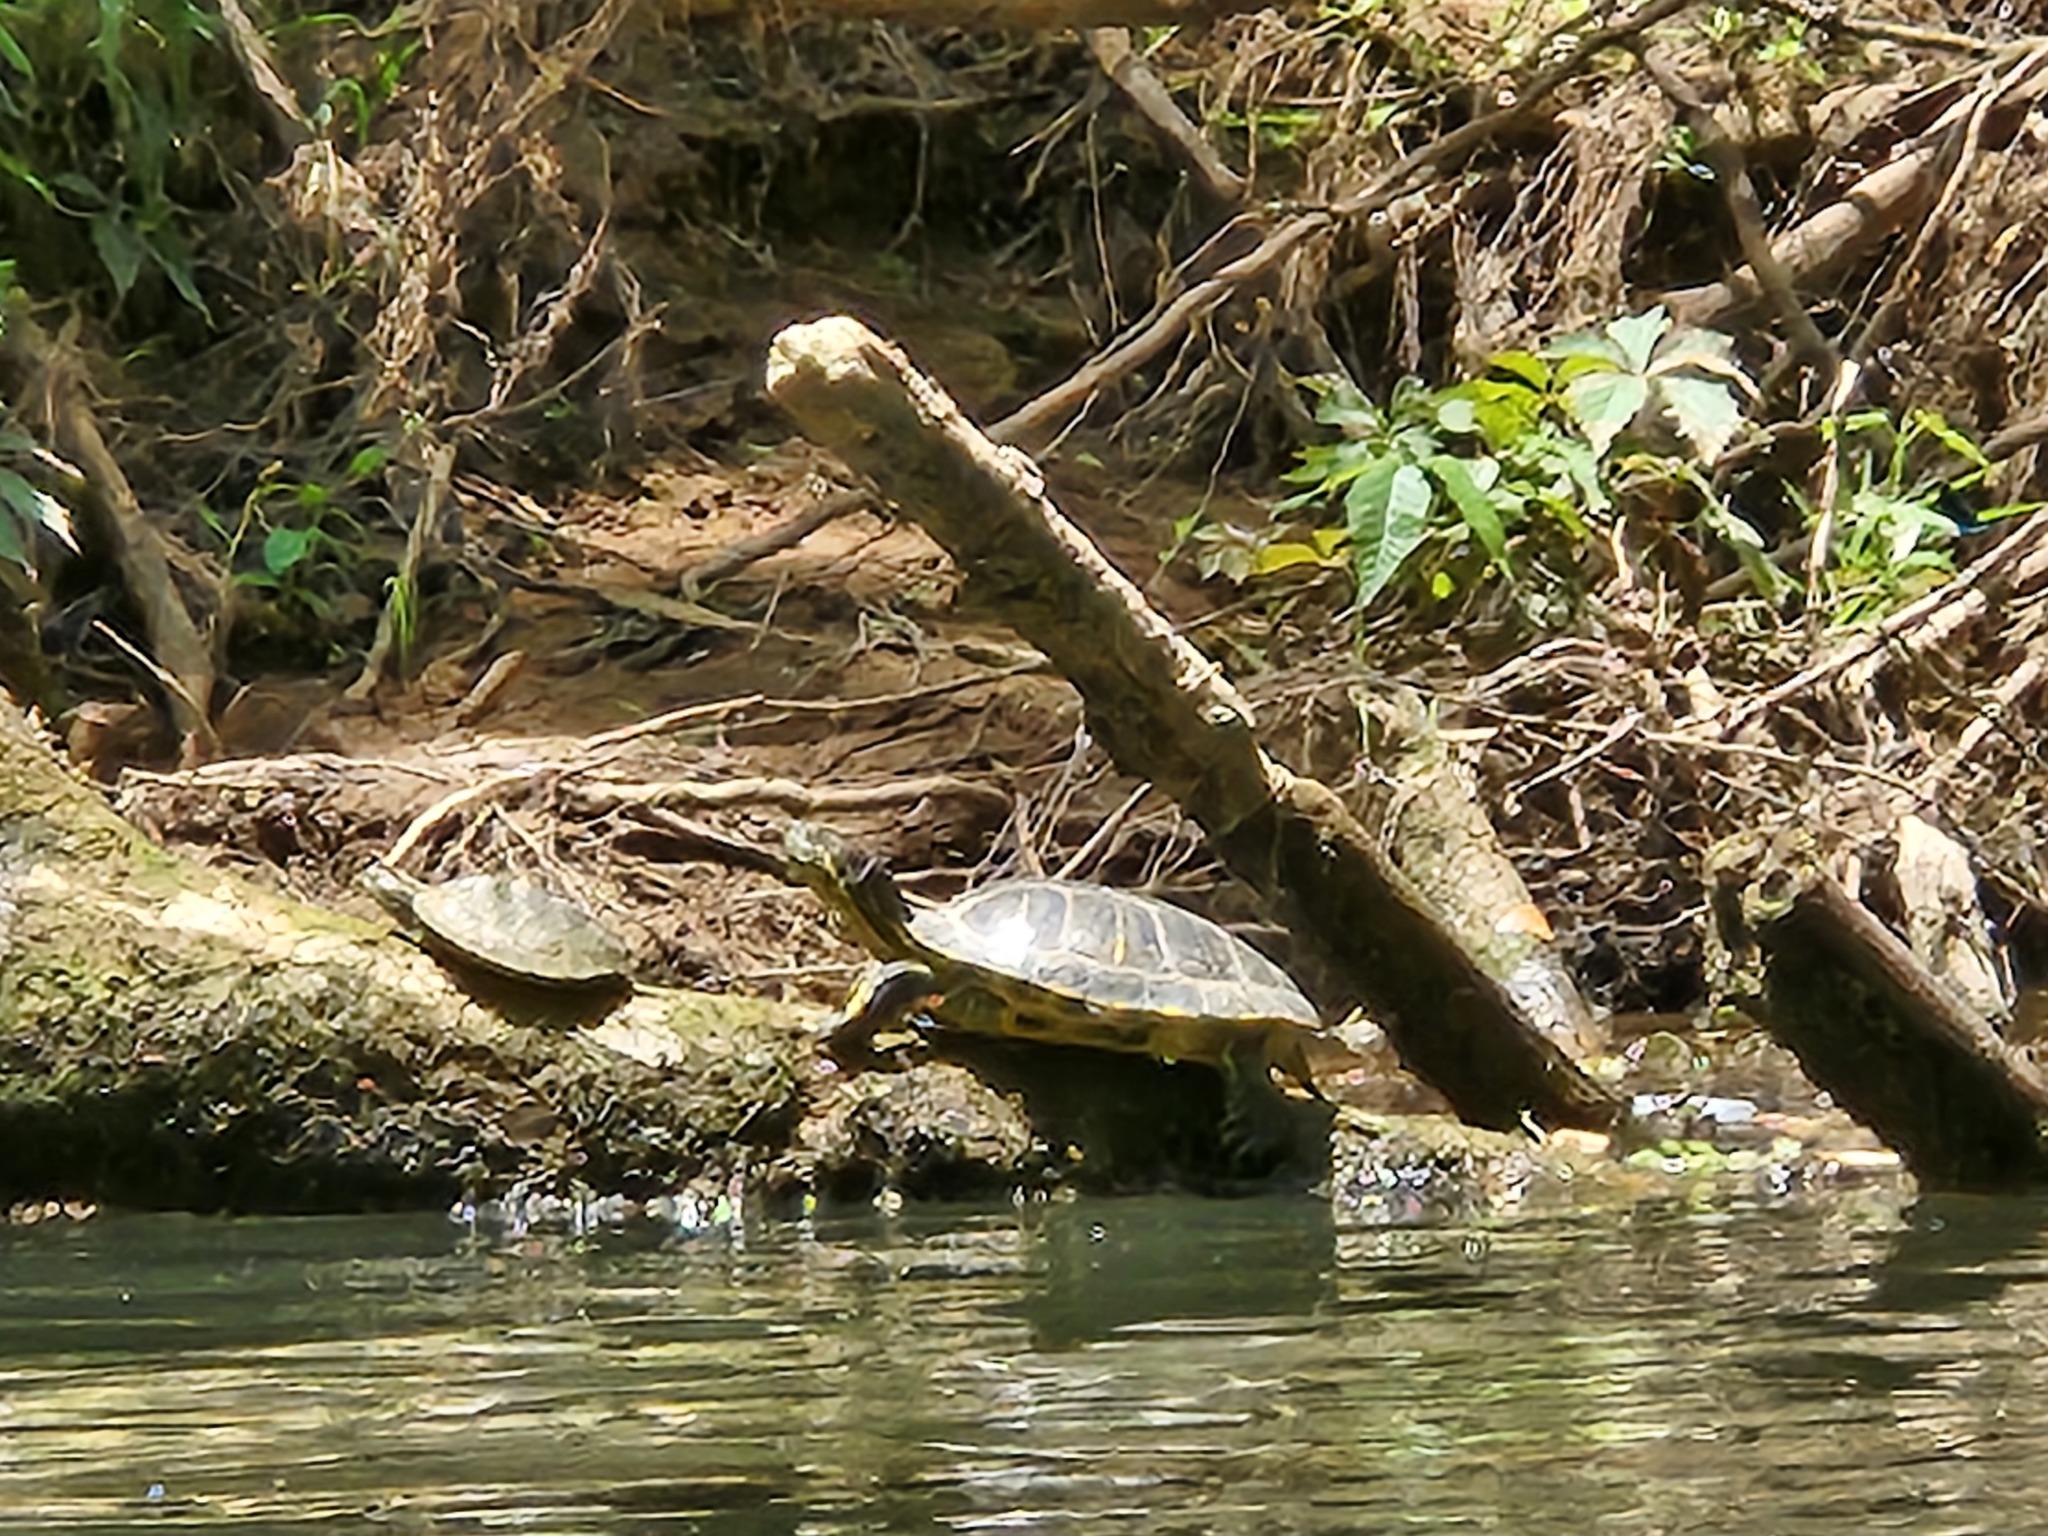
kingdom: Animalia
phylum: Chordata
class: Testudines
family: Emydidae
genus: Trachemys
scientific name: Trachemys scripta
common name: Slider
